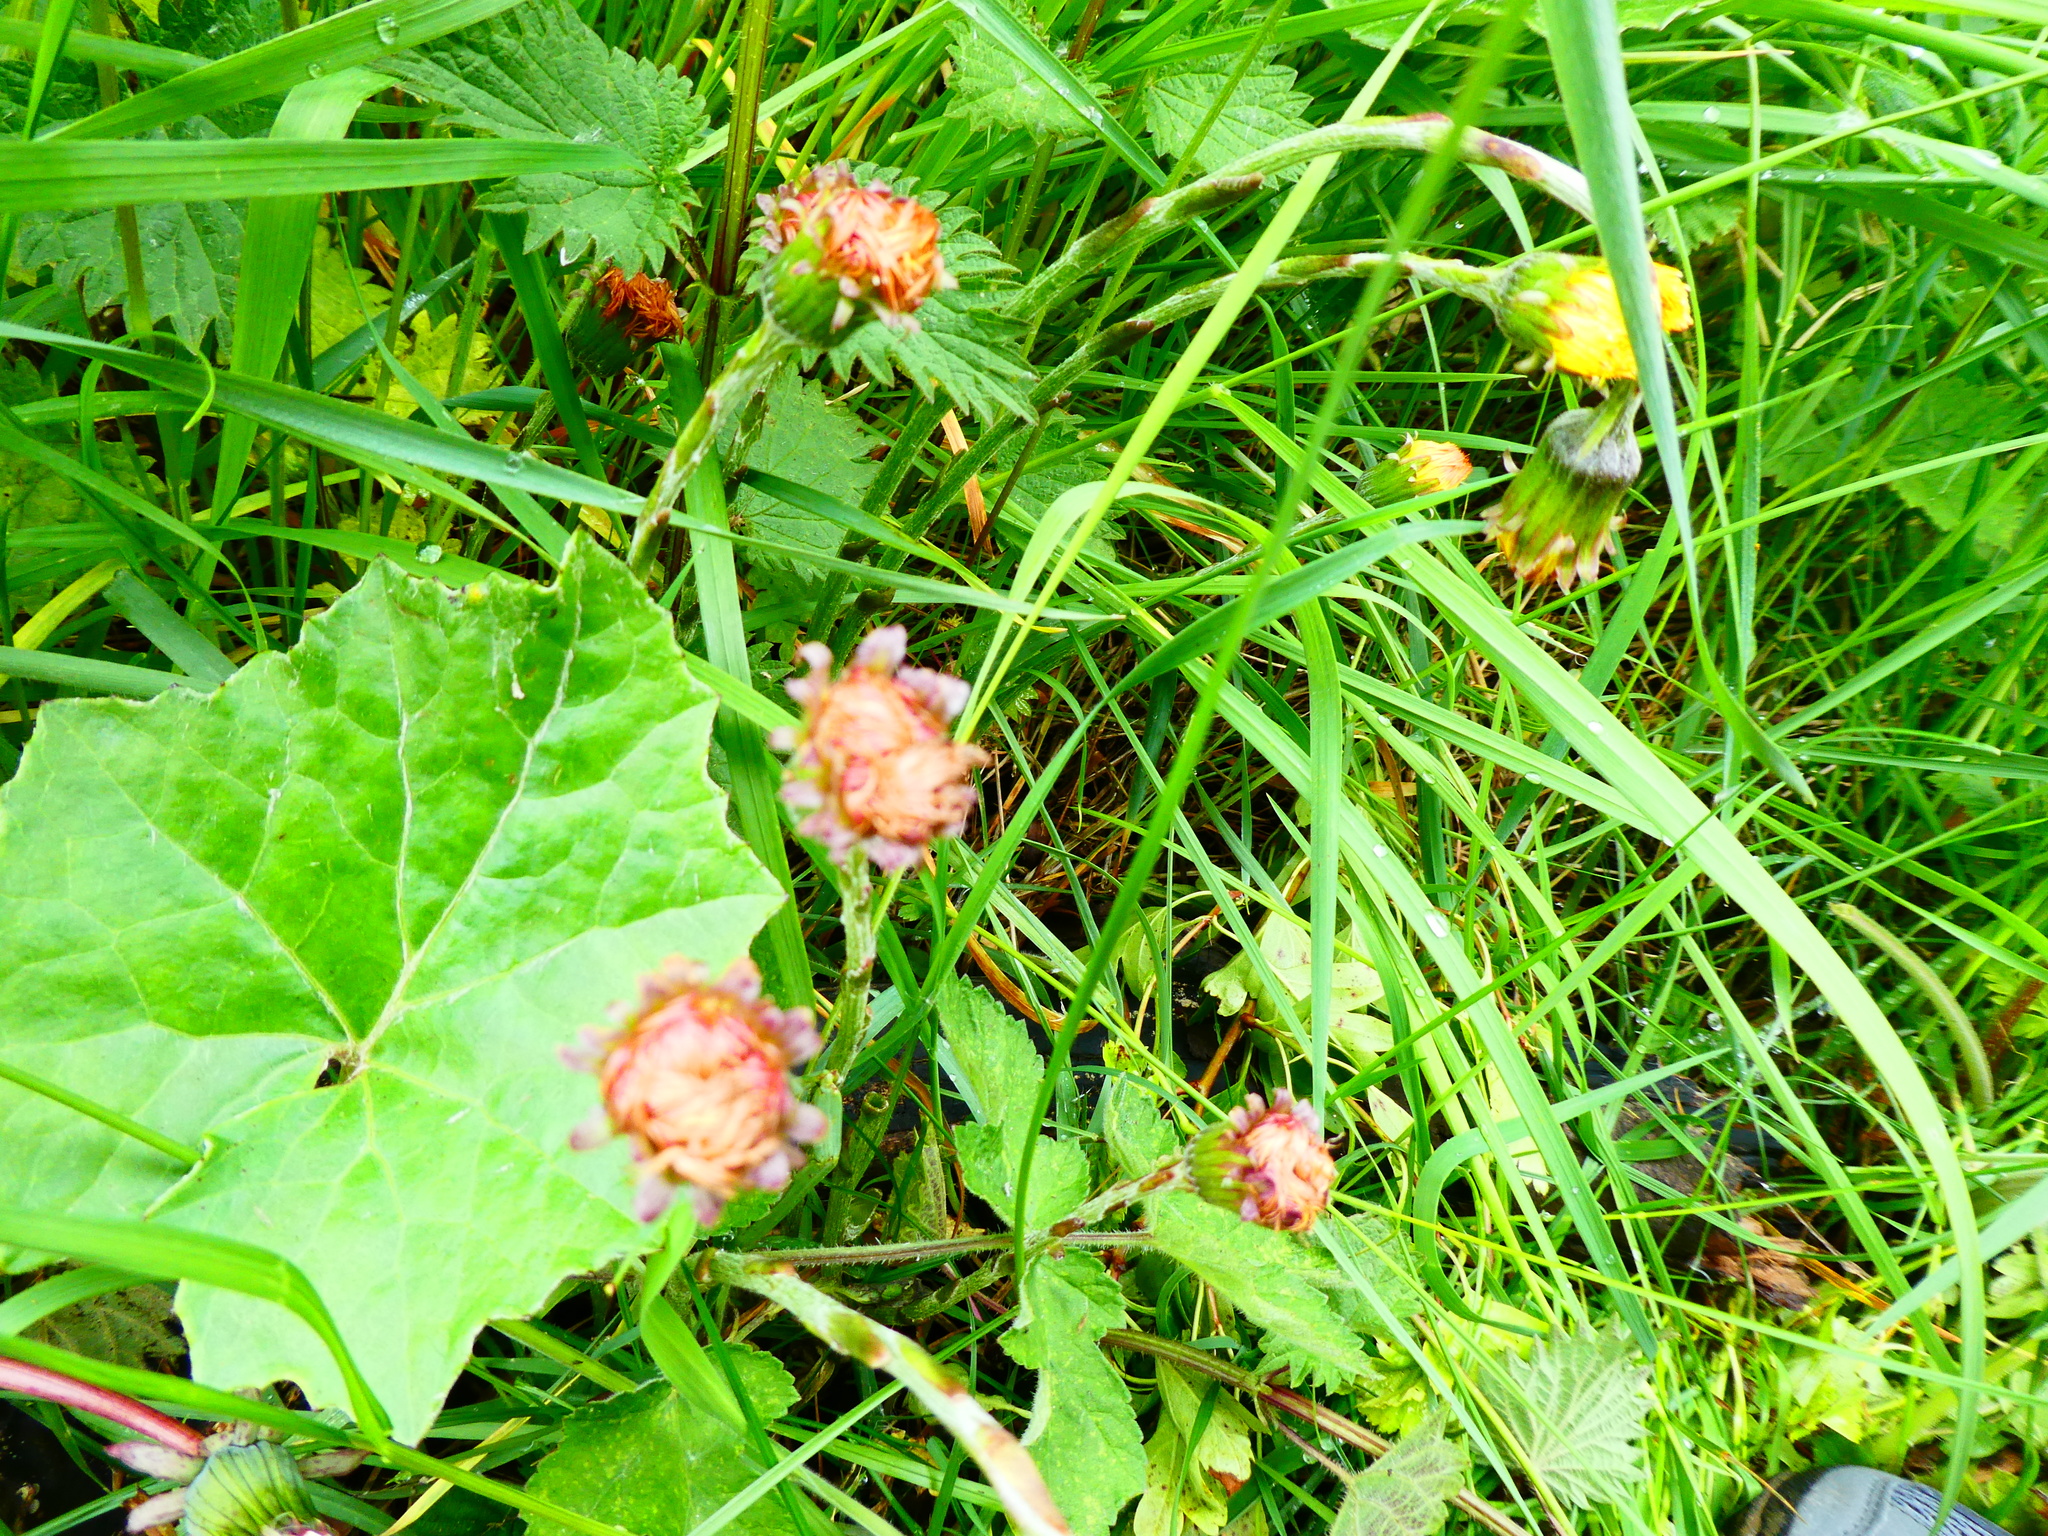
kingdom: Plantae
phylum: Tracheophyta
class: Magnoliopsida
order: Asterales
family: Asteraceae
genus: Tussilago
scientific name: Tussilago farfara
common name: Coltsfoot
